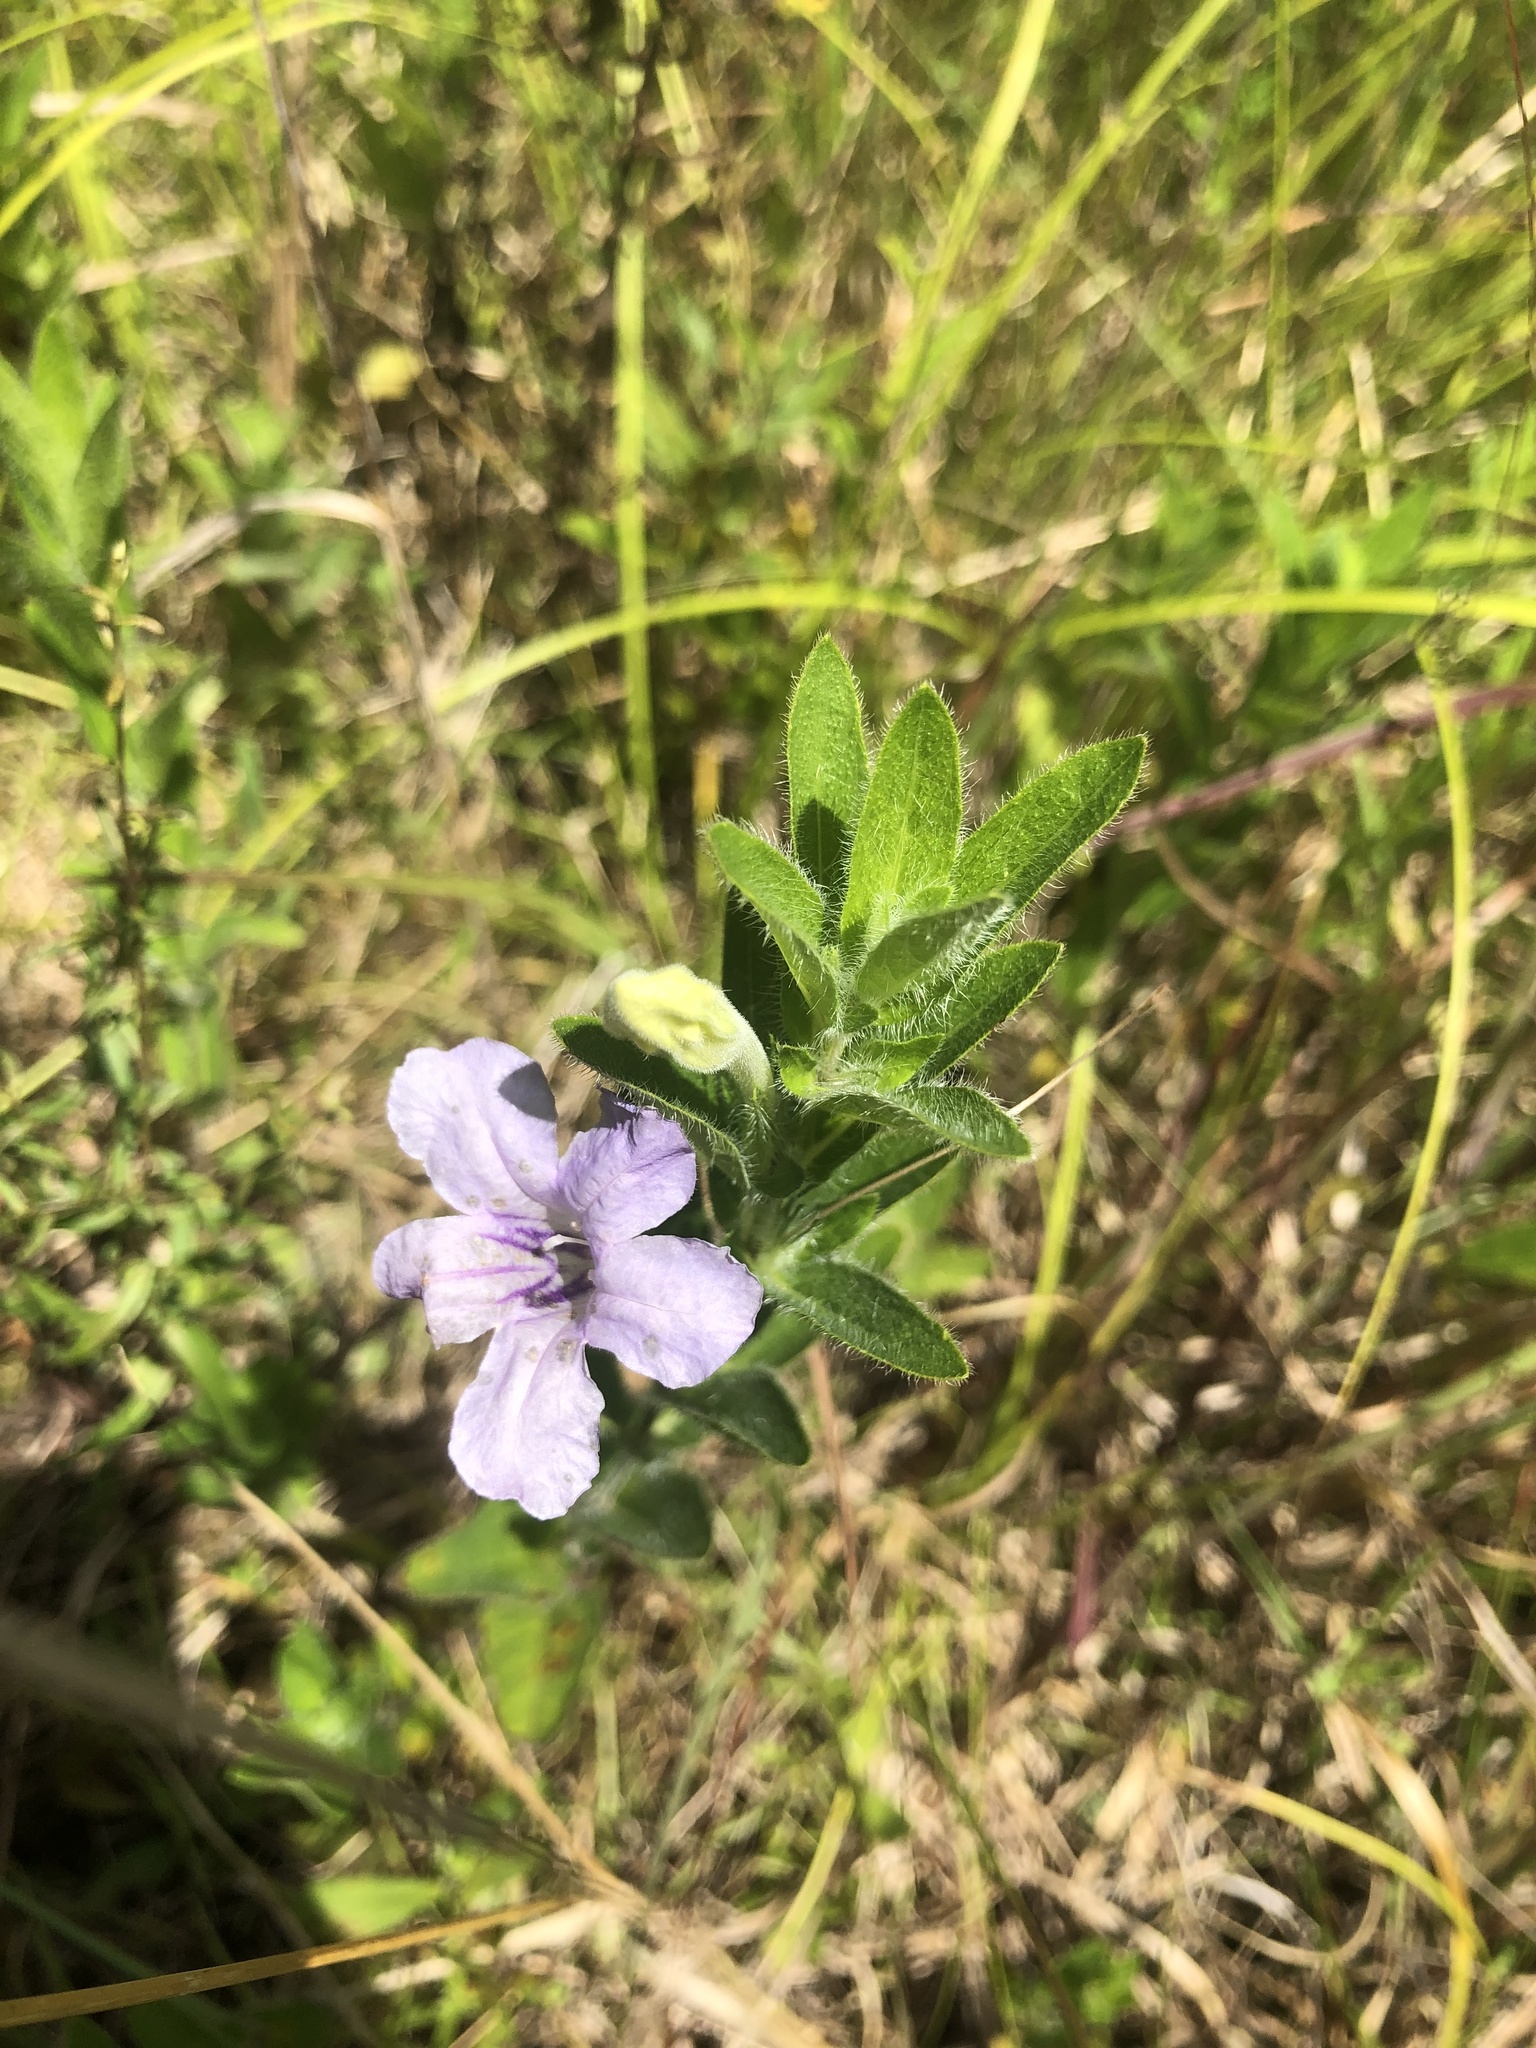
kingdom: Plantae
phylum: Tracheophyta
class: Magnoliopsida
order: Lamiales
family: Acanthaceae
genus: Ruellia
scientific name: Ruellia humilis
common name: Fringe-leaf ruellia
